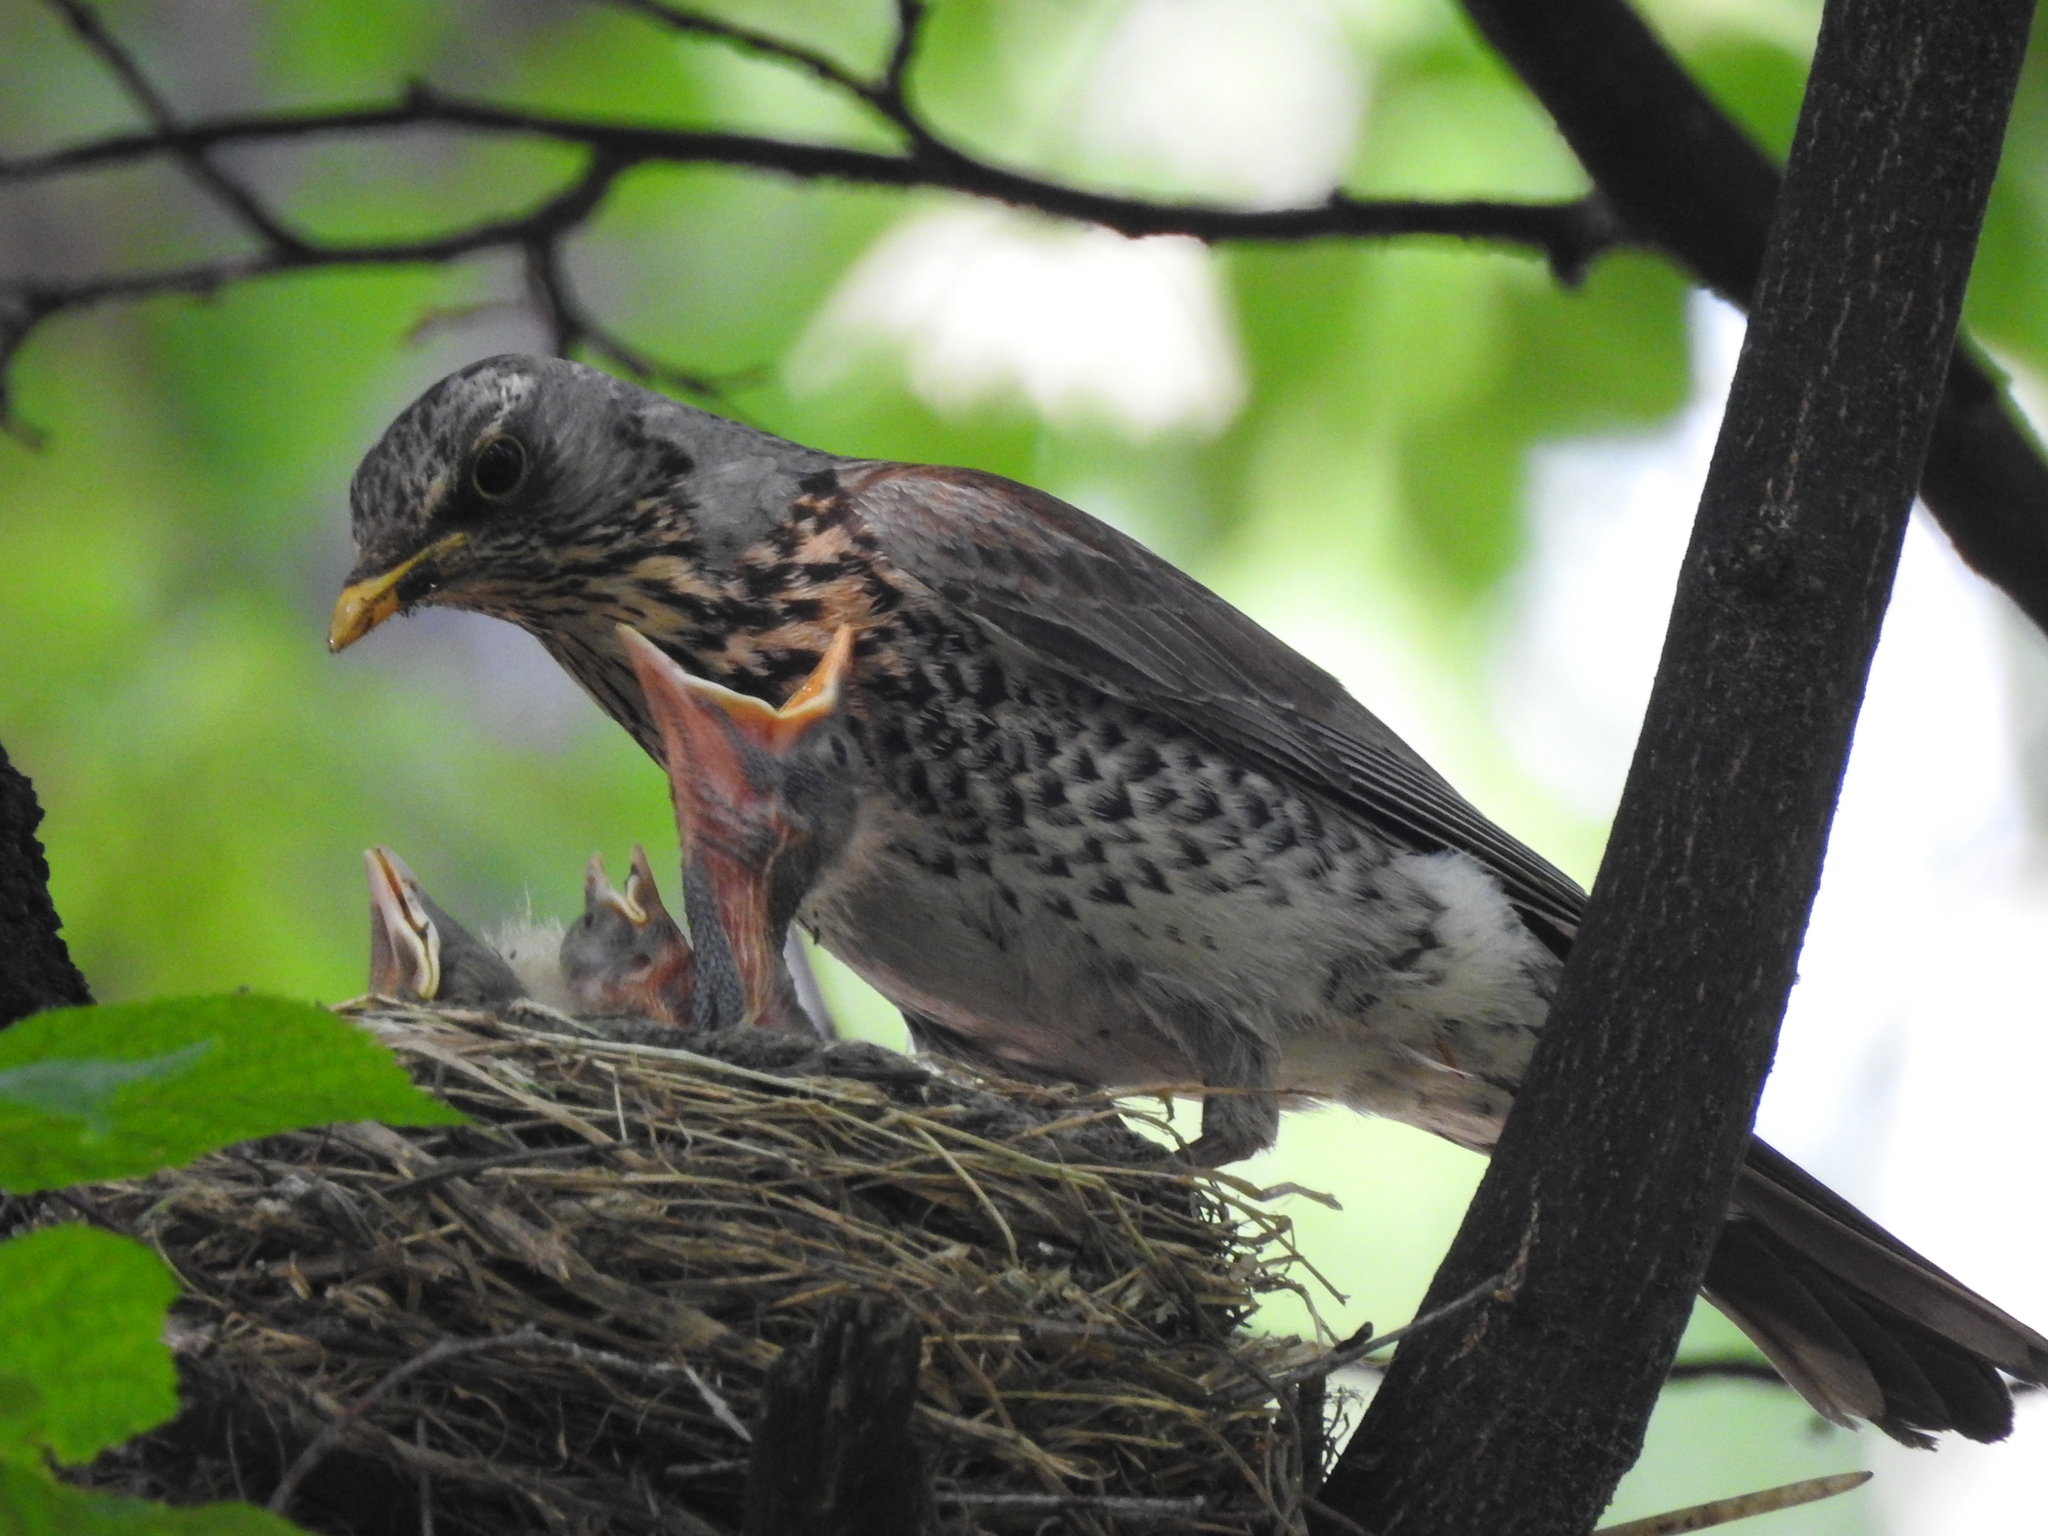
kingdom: Animalia
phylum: Chordata
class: Aves
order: Passeriformes
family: Turdidae
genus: Turdus
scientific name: Turdus pilaris
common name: Fieldfare
